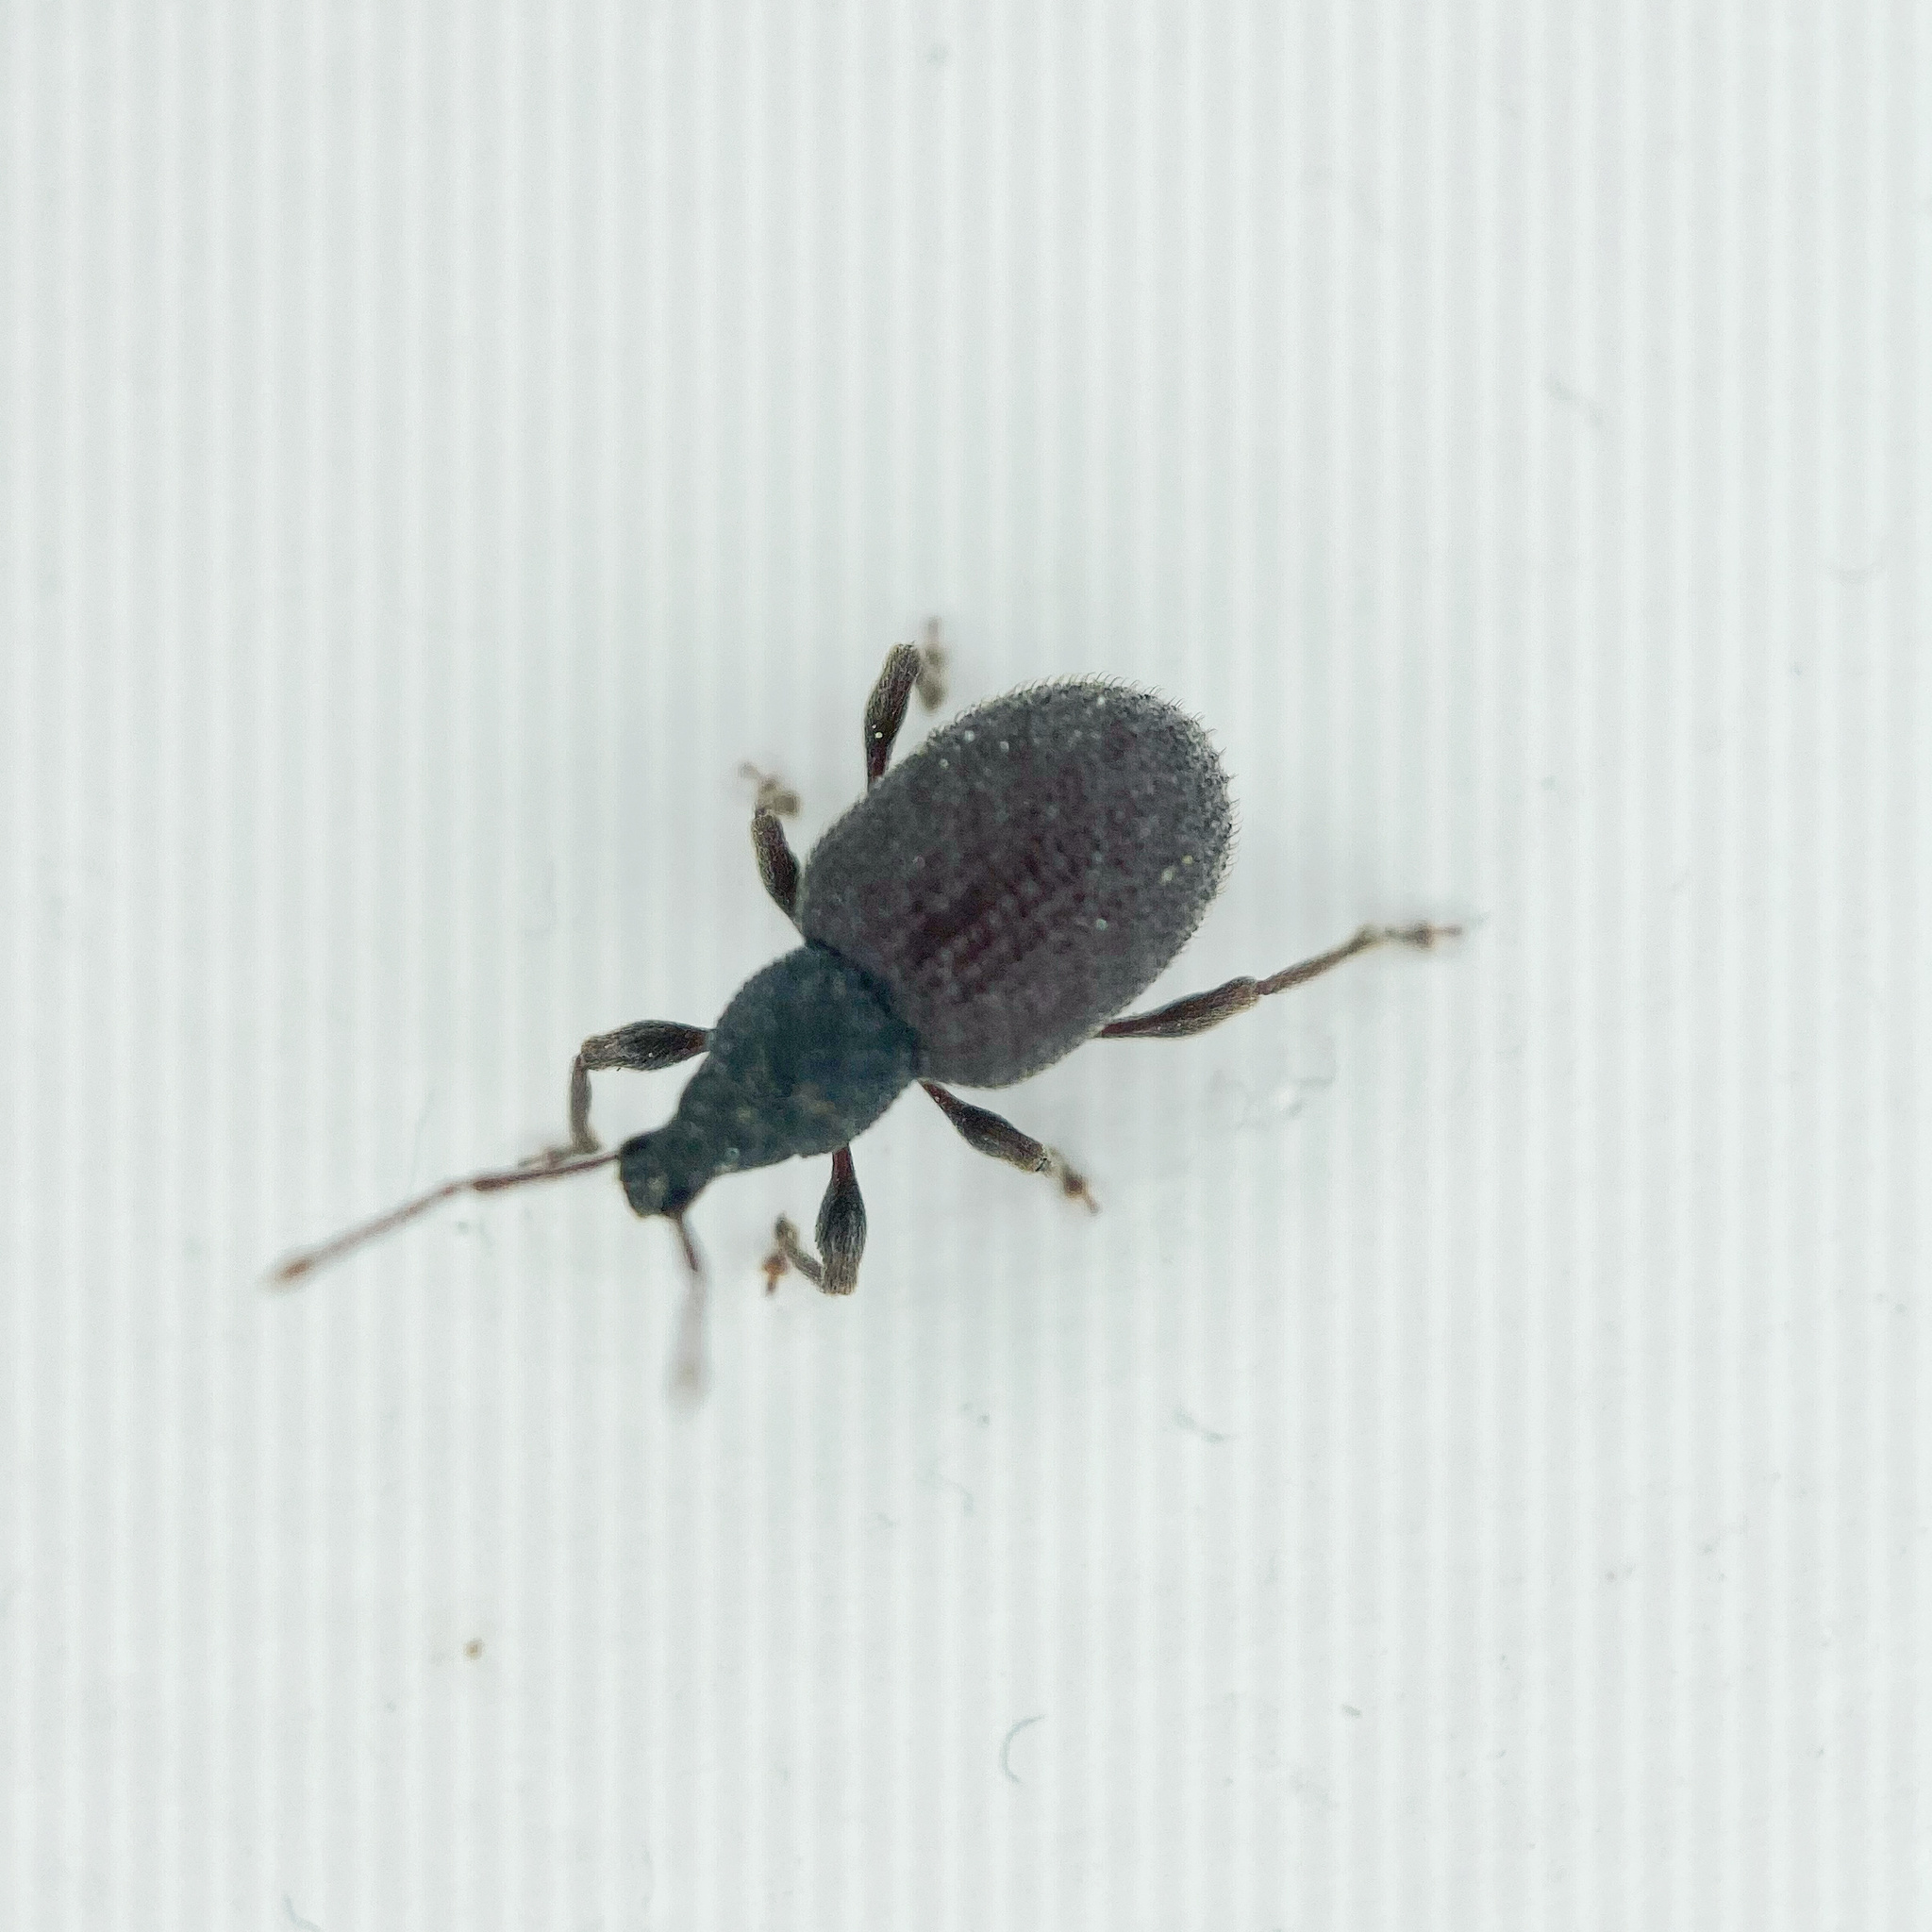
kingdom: Animalia
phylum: Arthropoda
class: Insecta
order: Coleoptera
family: Curculionidae
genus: Otiorhynchus
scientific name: Otiorhynchus rugosostriatus
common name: Weevil
